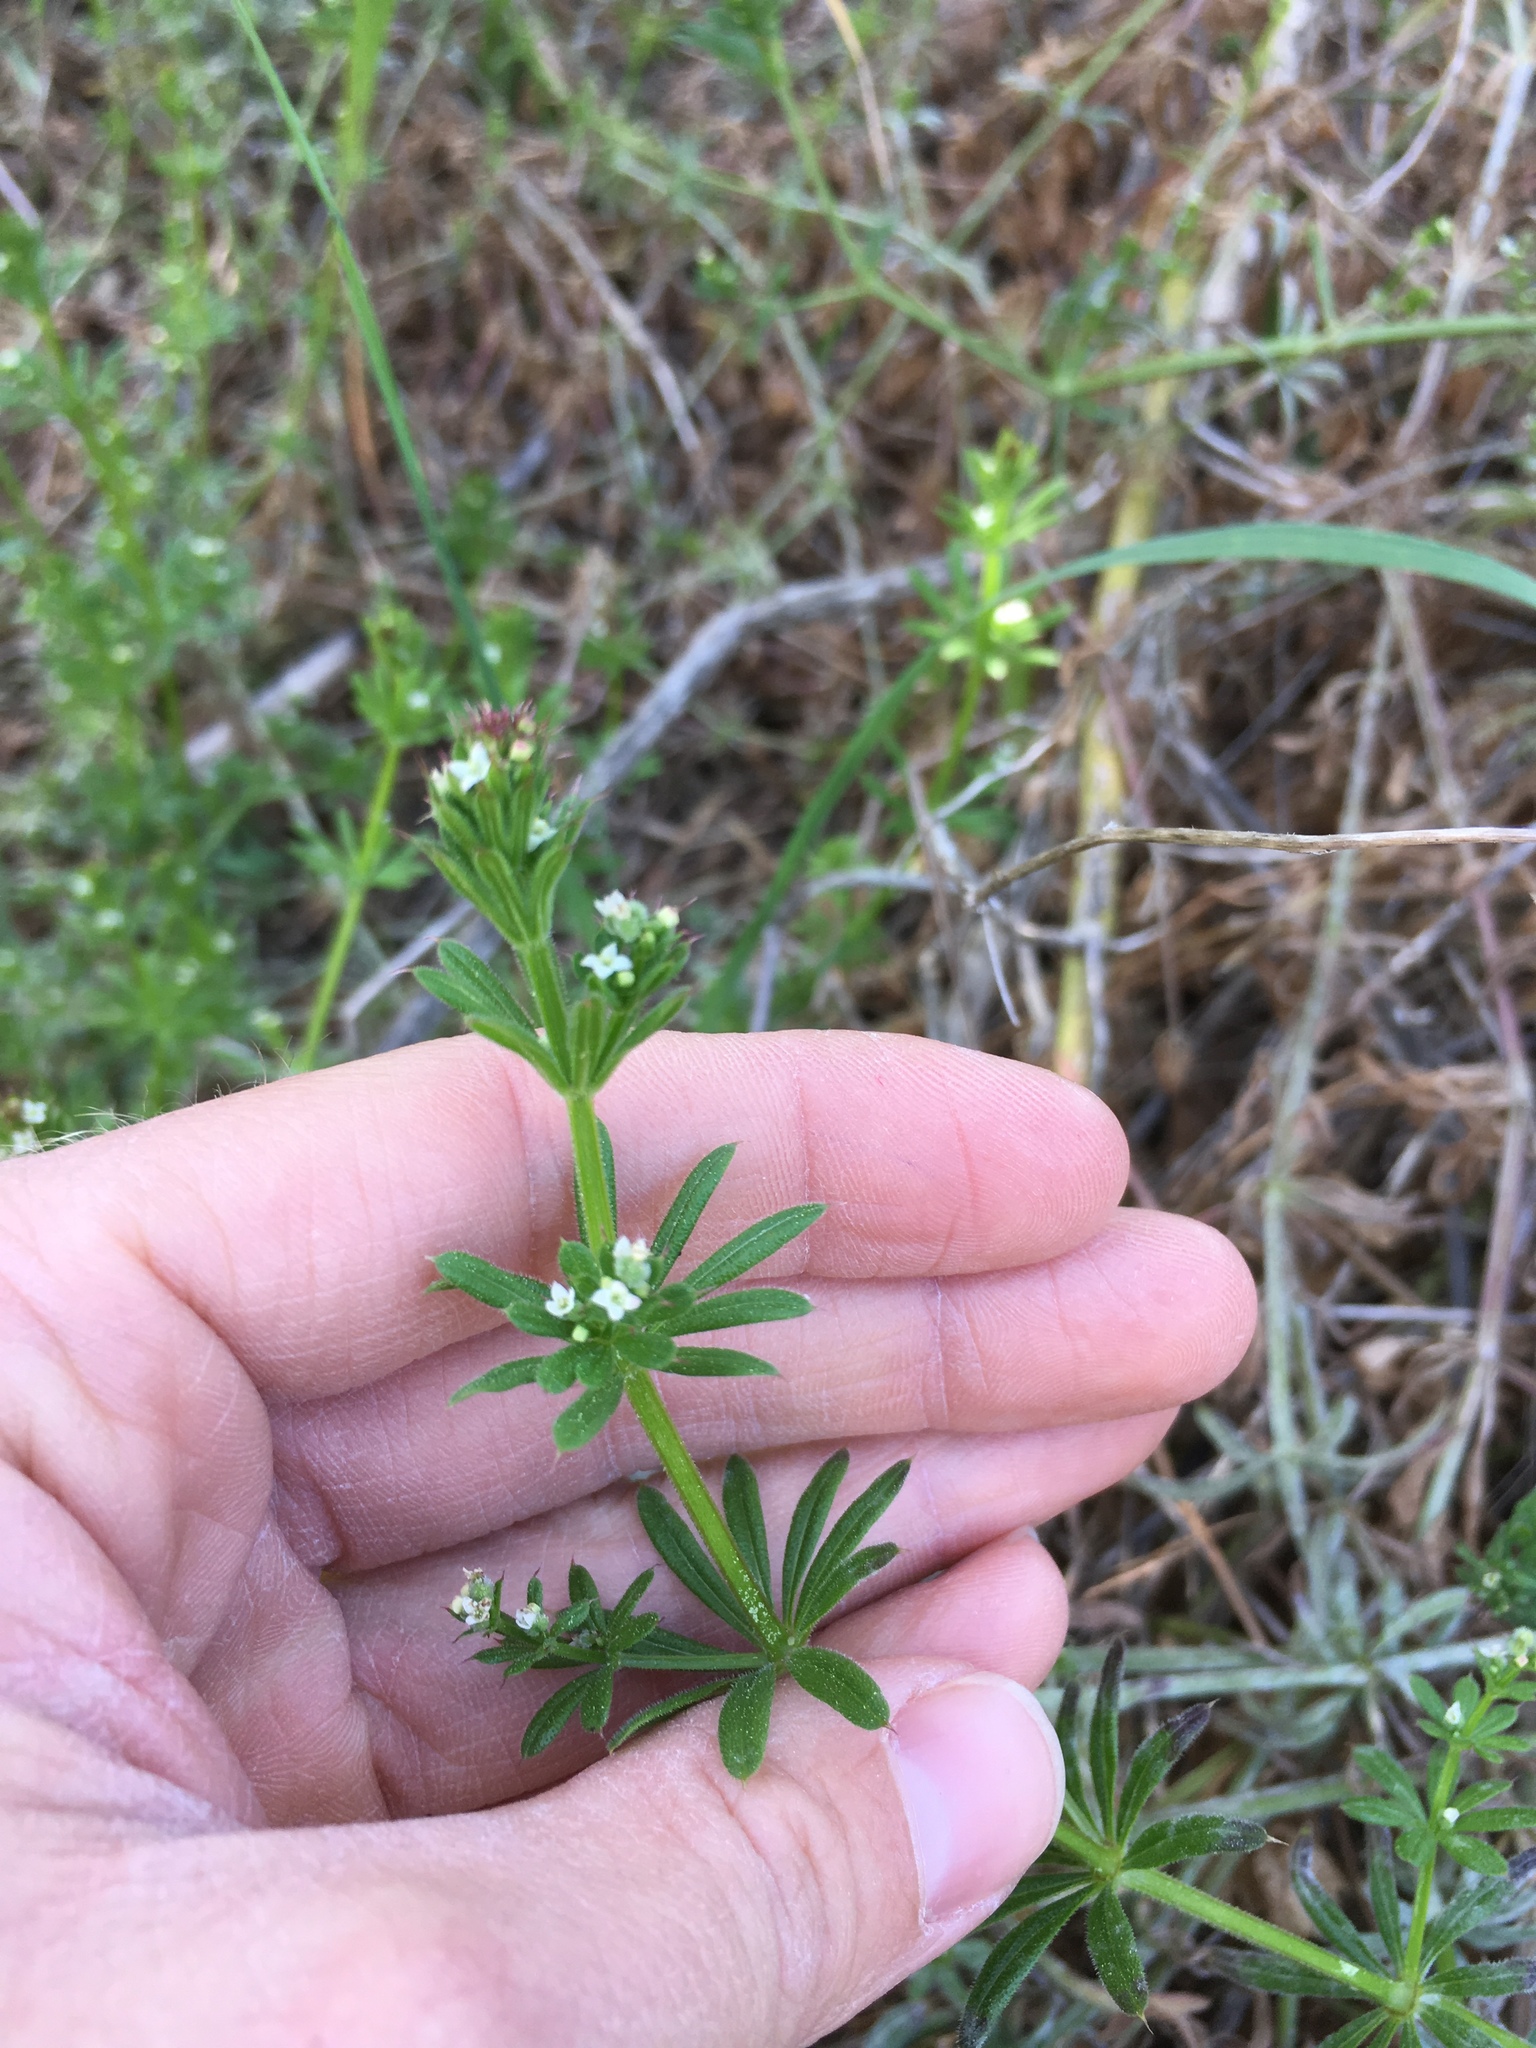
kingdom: Plantae
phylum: Tracheophyta
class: Magnoliopsida
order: Gentianales
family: Rubiaceae
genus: Galium
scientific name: Galium aparine
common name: Cleavers
